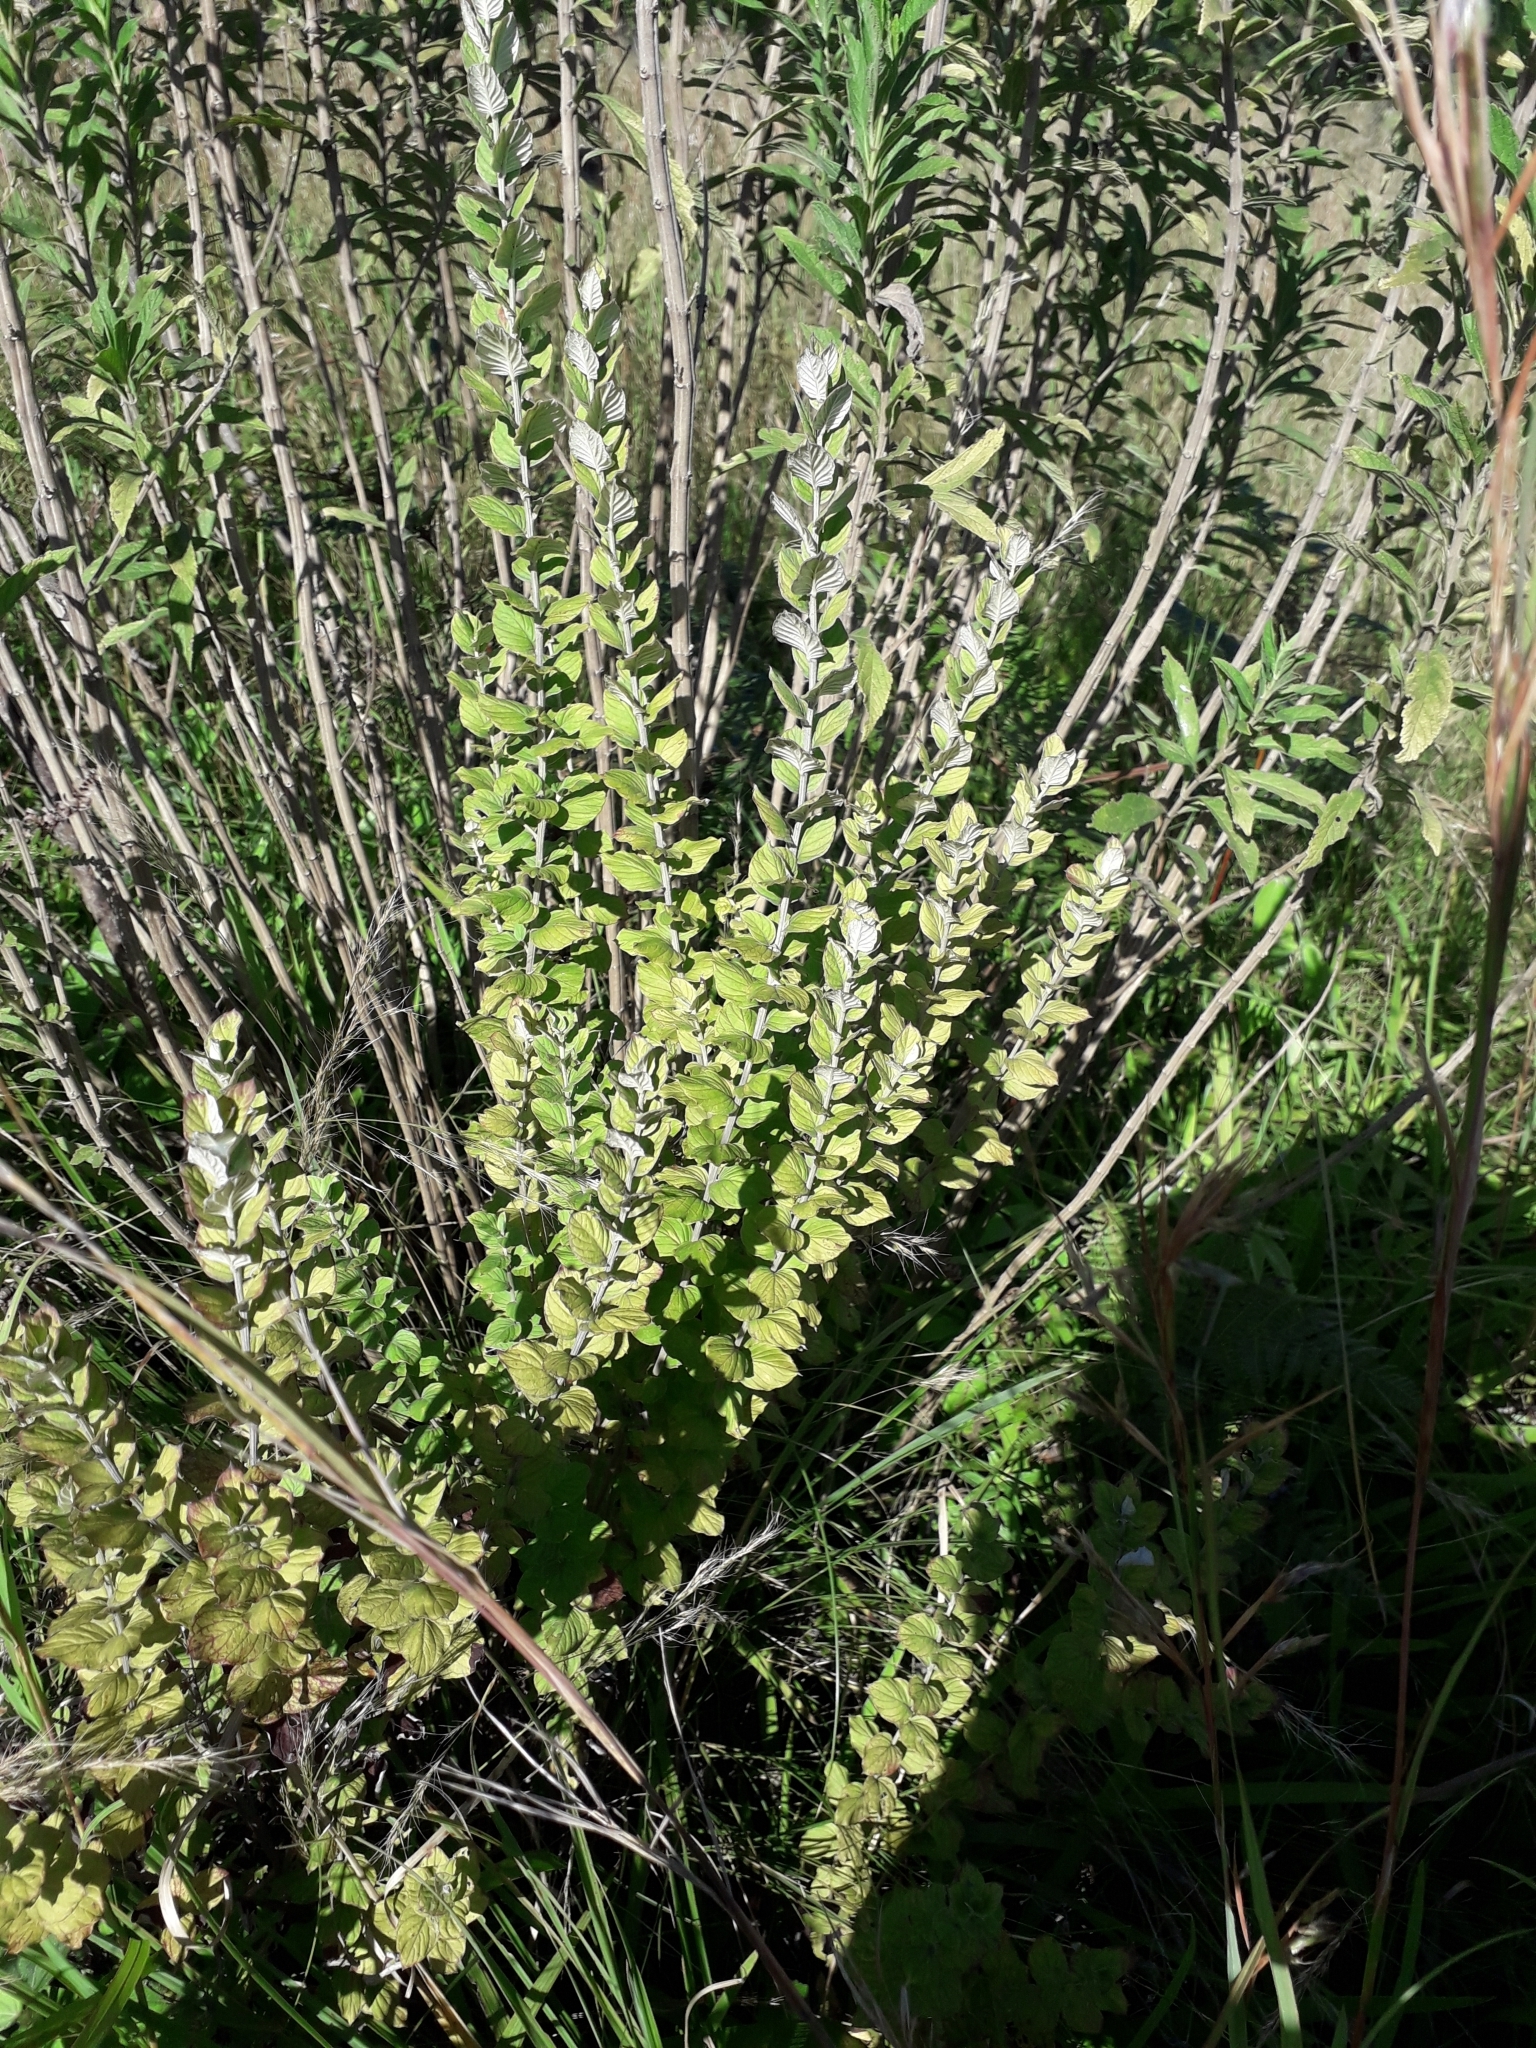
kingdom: Plantae
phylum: Tracheophyta
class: Magnoliopsida
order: Asterales
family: Asteraceae
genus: Hilliardiella
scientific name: Hilliardiella oligocephala
